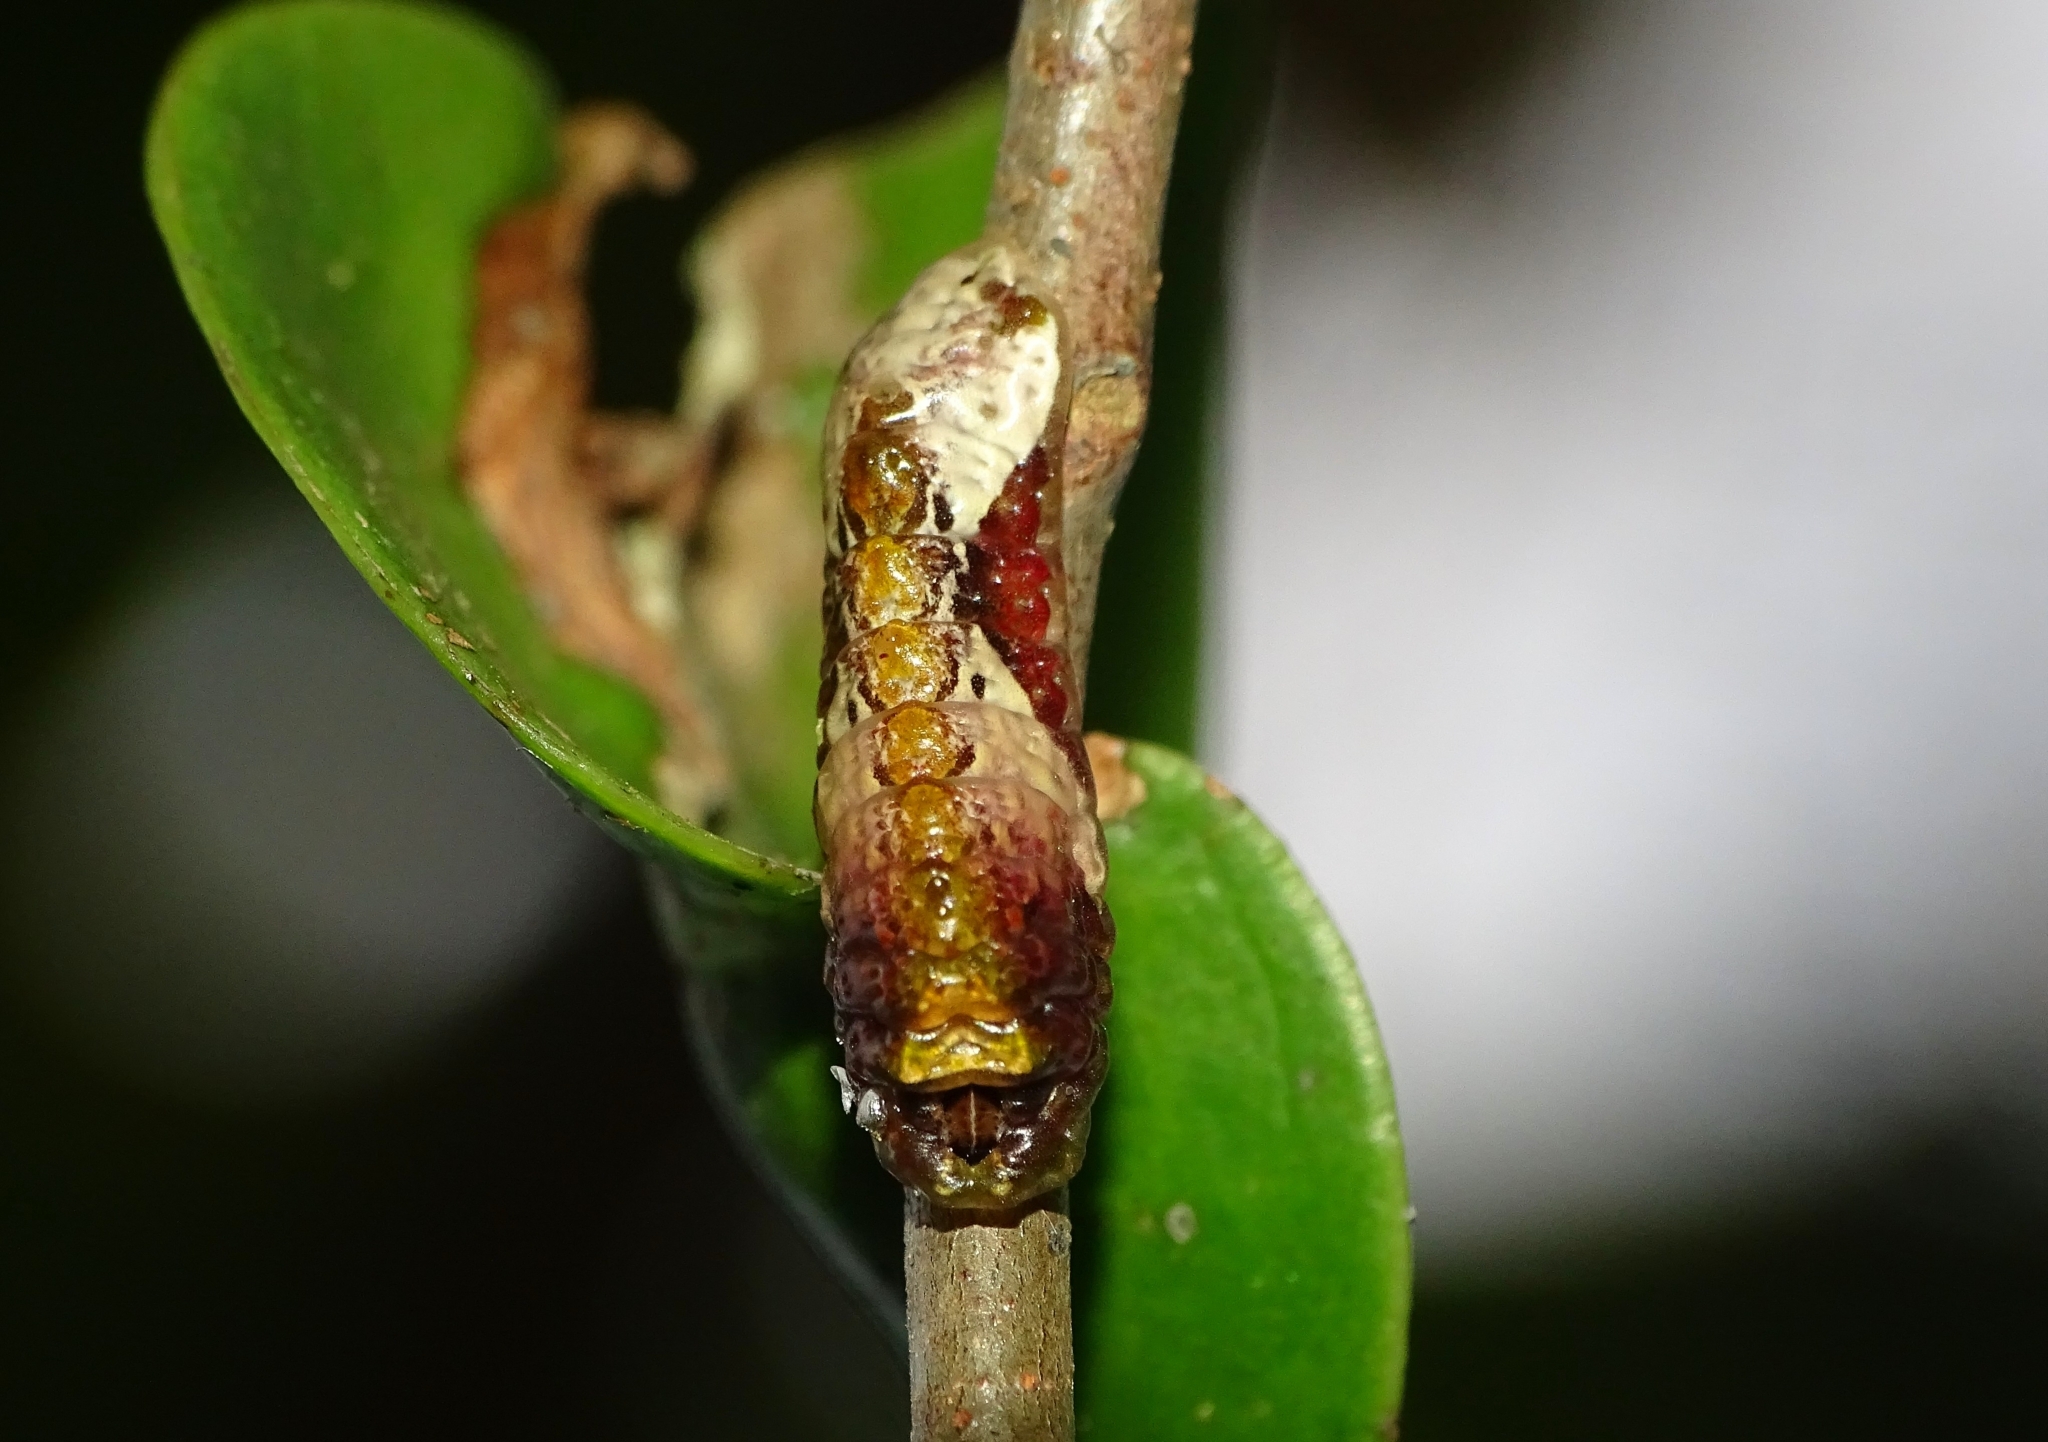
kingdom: Animalia
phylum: Arthropoda
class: Insecta
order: Lepidoptera
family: Lycaenidae
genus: Tajuria
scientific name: Tajuria cippus
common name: Peacock royal
